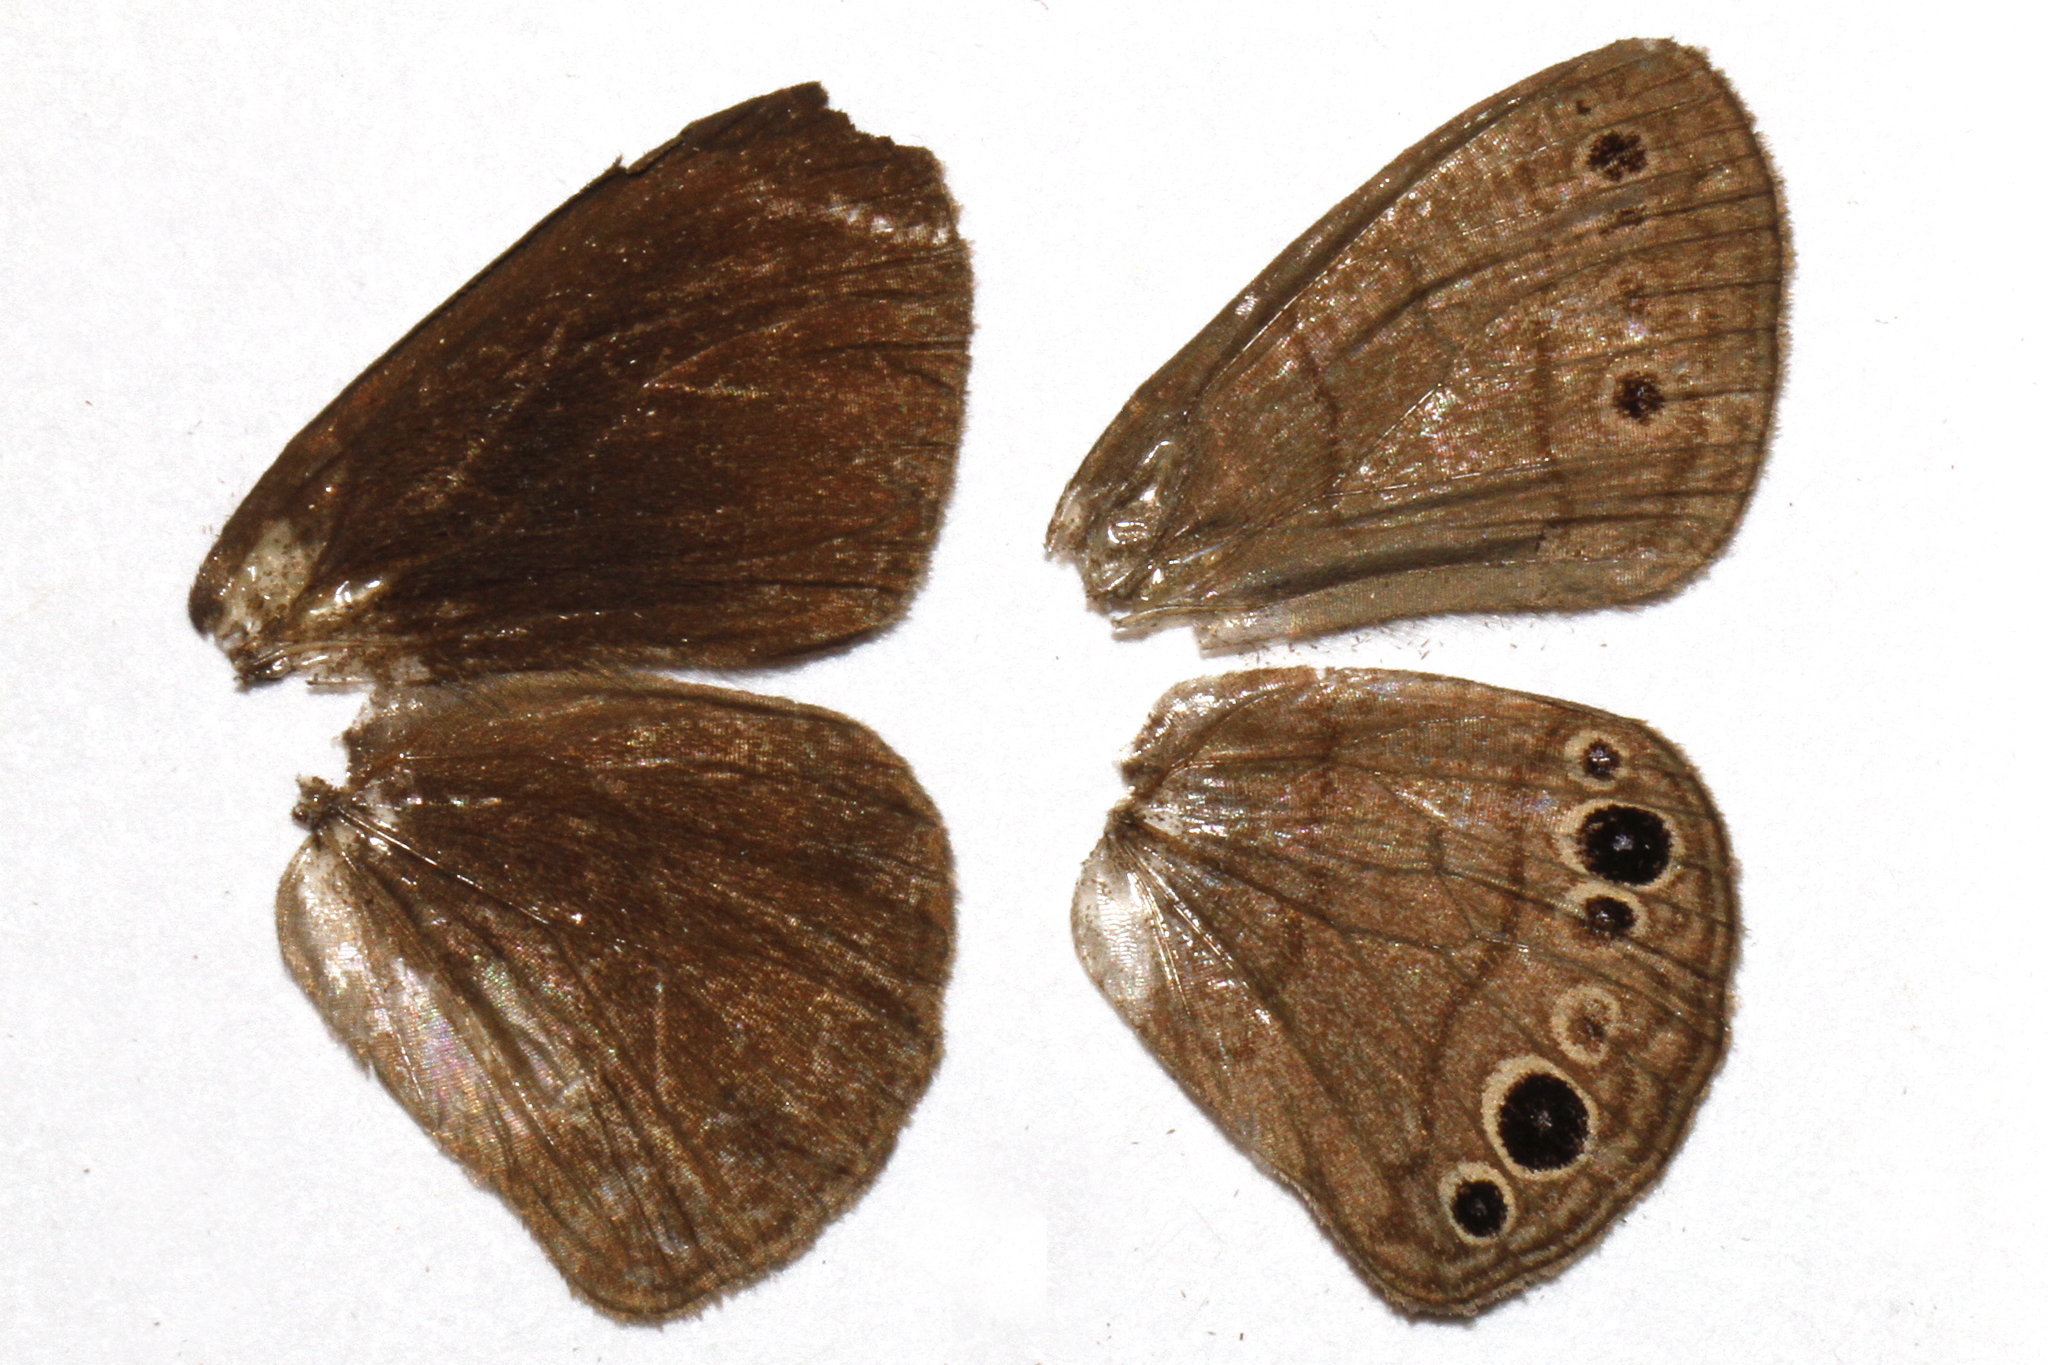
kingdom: Animalia
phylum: Arthropoda
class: Insecta
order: Lepidoptera
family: Nymphalidae
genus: Hermeuptychia
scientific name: Hermeuptychia hermes
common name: Hermes satyr
